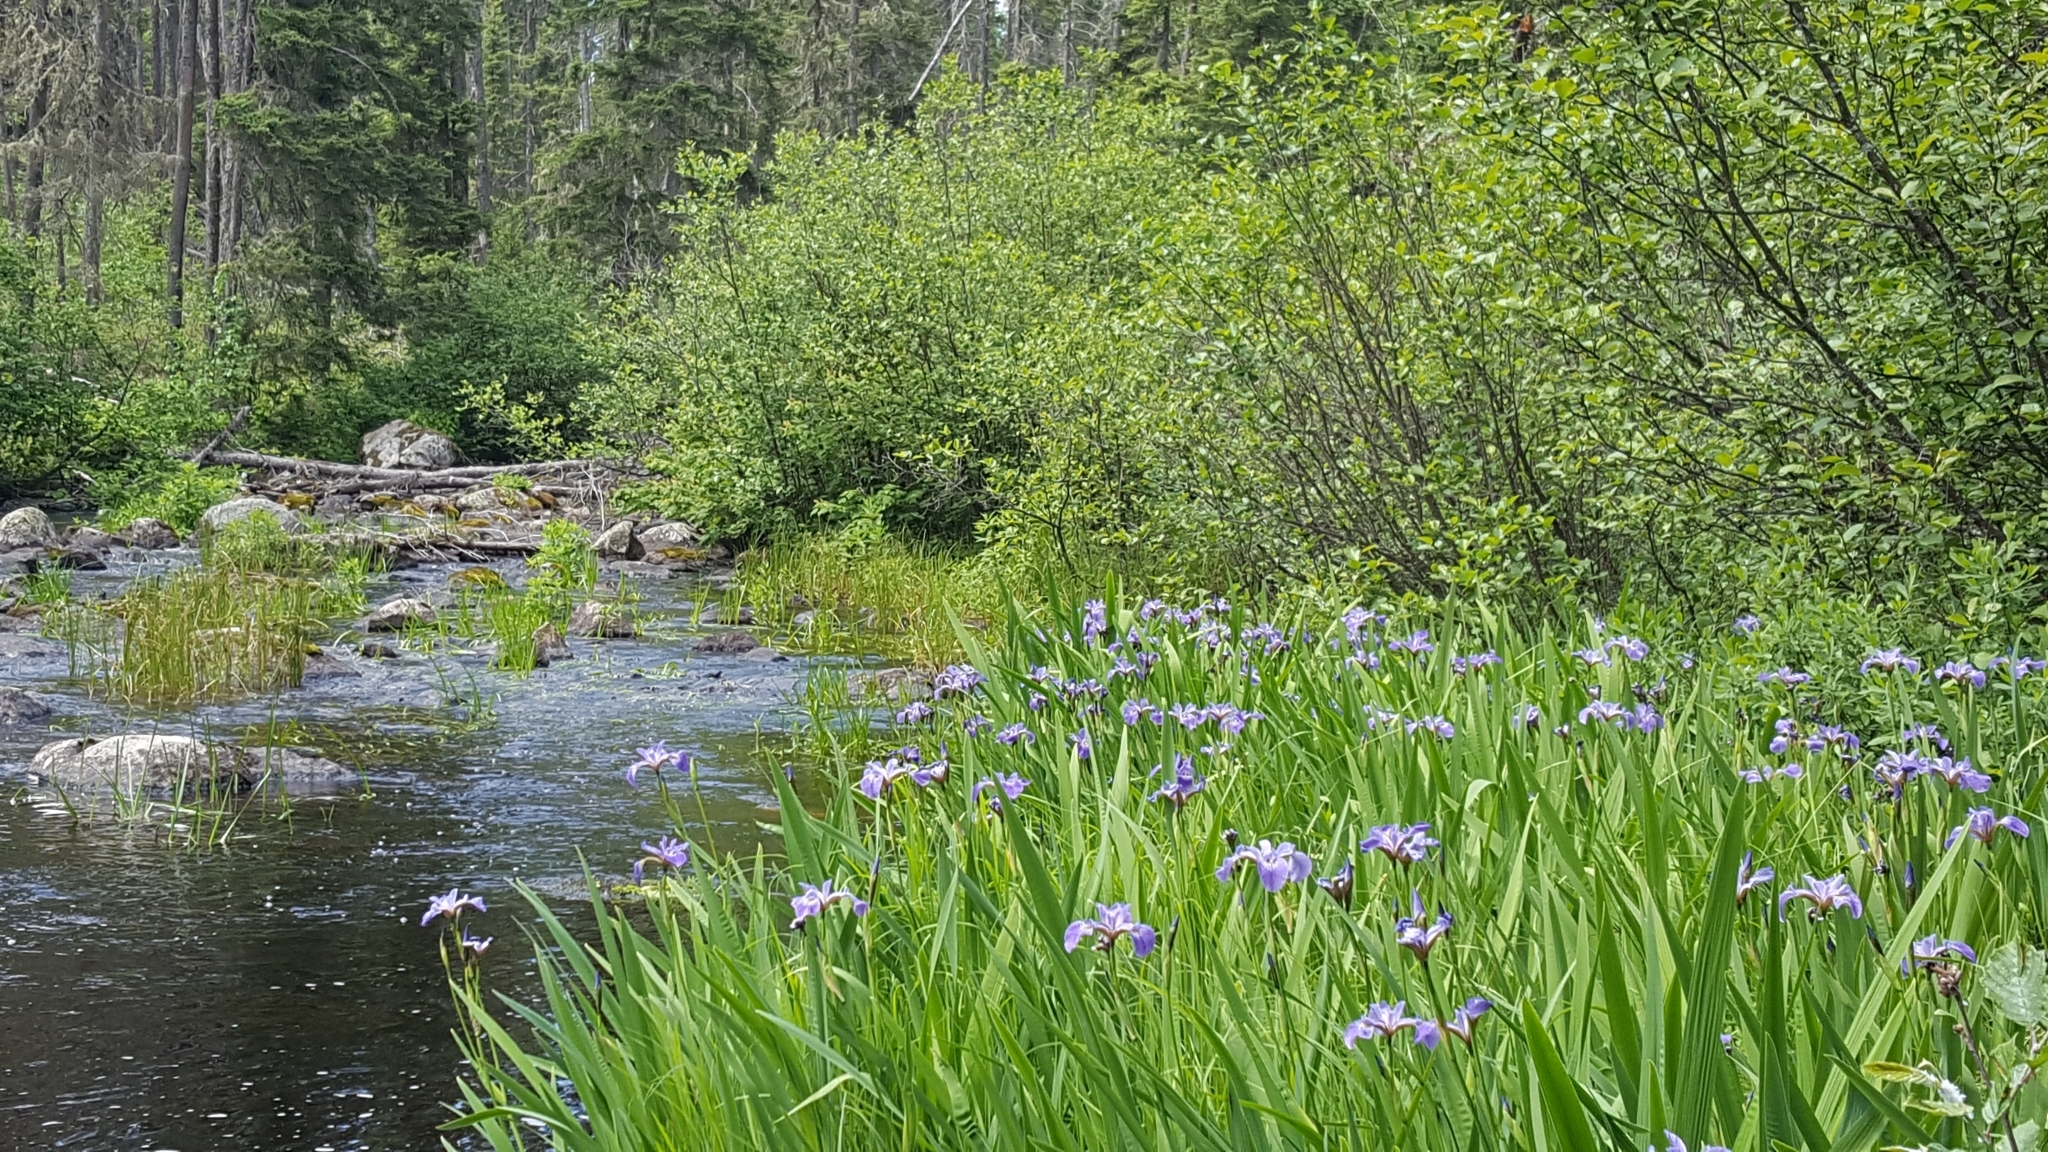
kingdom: Plantae
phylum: Tracheophyta
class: Liliopsida
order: Asparagales
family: Iridaceae
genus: Iris
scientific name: Iris versicolor
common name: Purple iris
